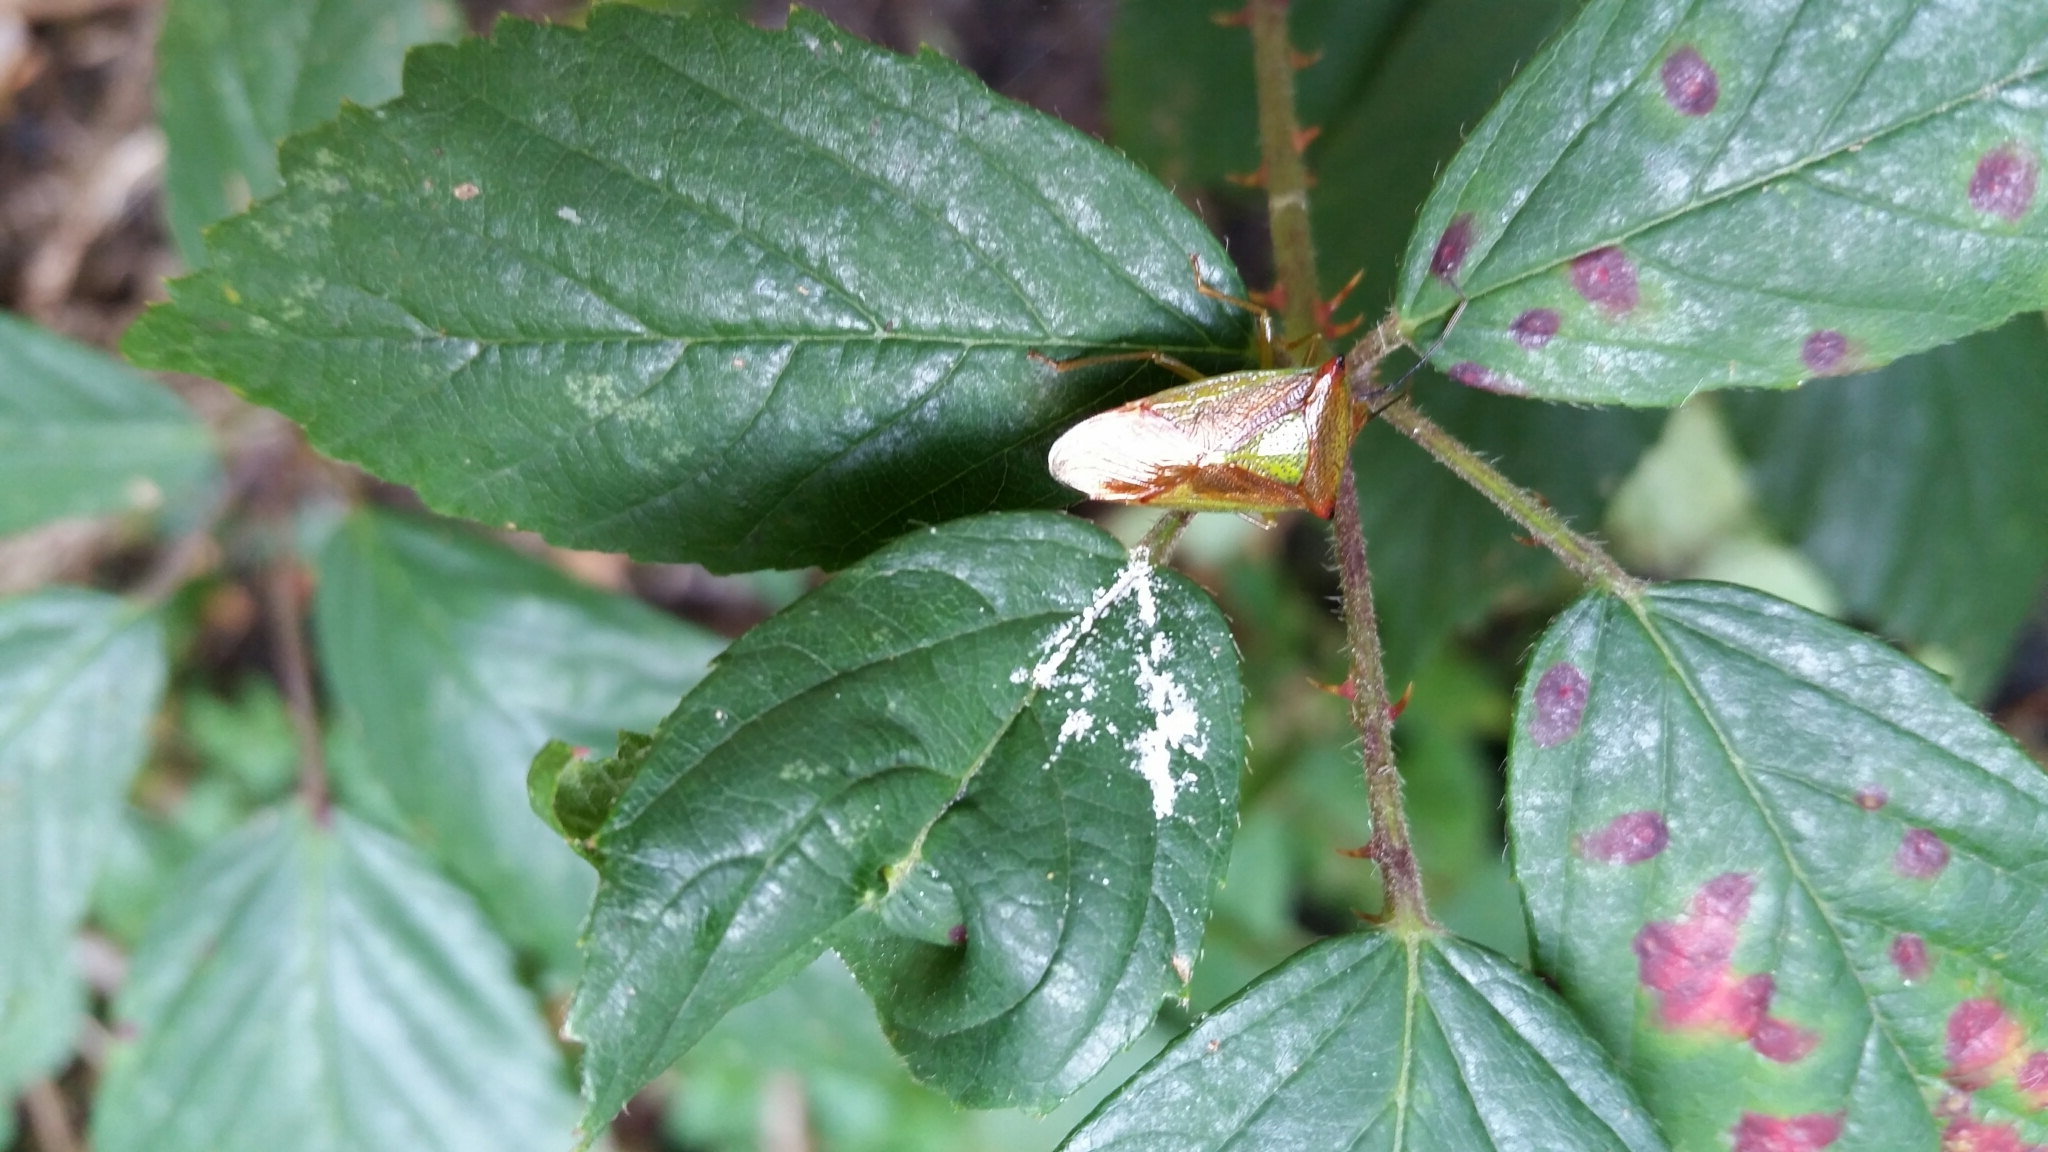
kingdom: Animalia
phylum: Arthropoda
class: Insecta
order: Hemiptera
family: Acanthosomatidae
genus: Acanthosoma
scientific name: Acanthosoma haemorrhoidale
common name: Hawthorn shieldbug
